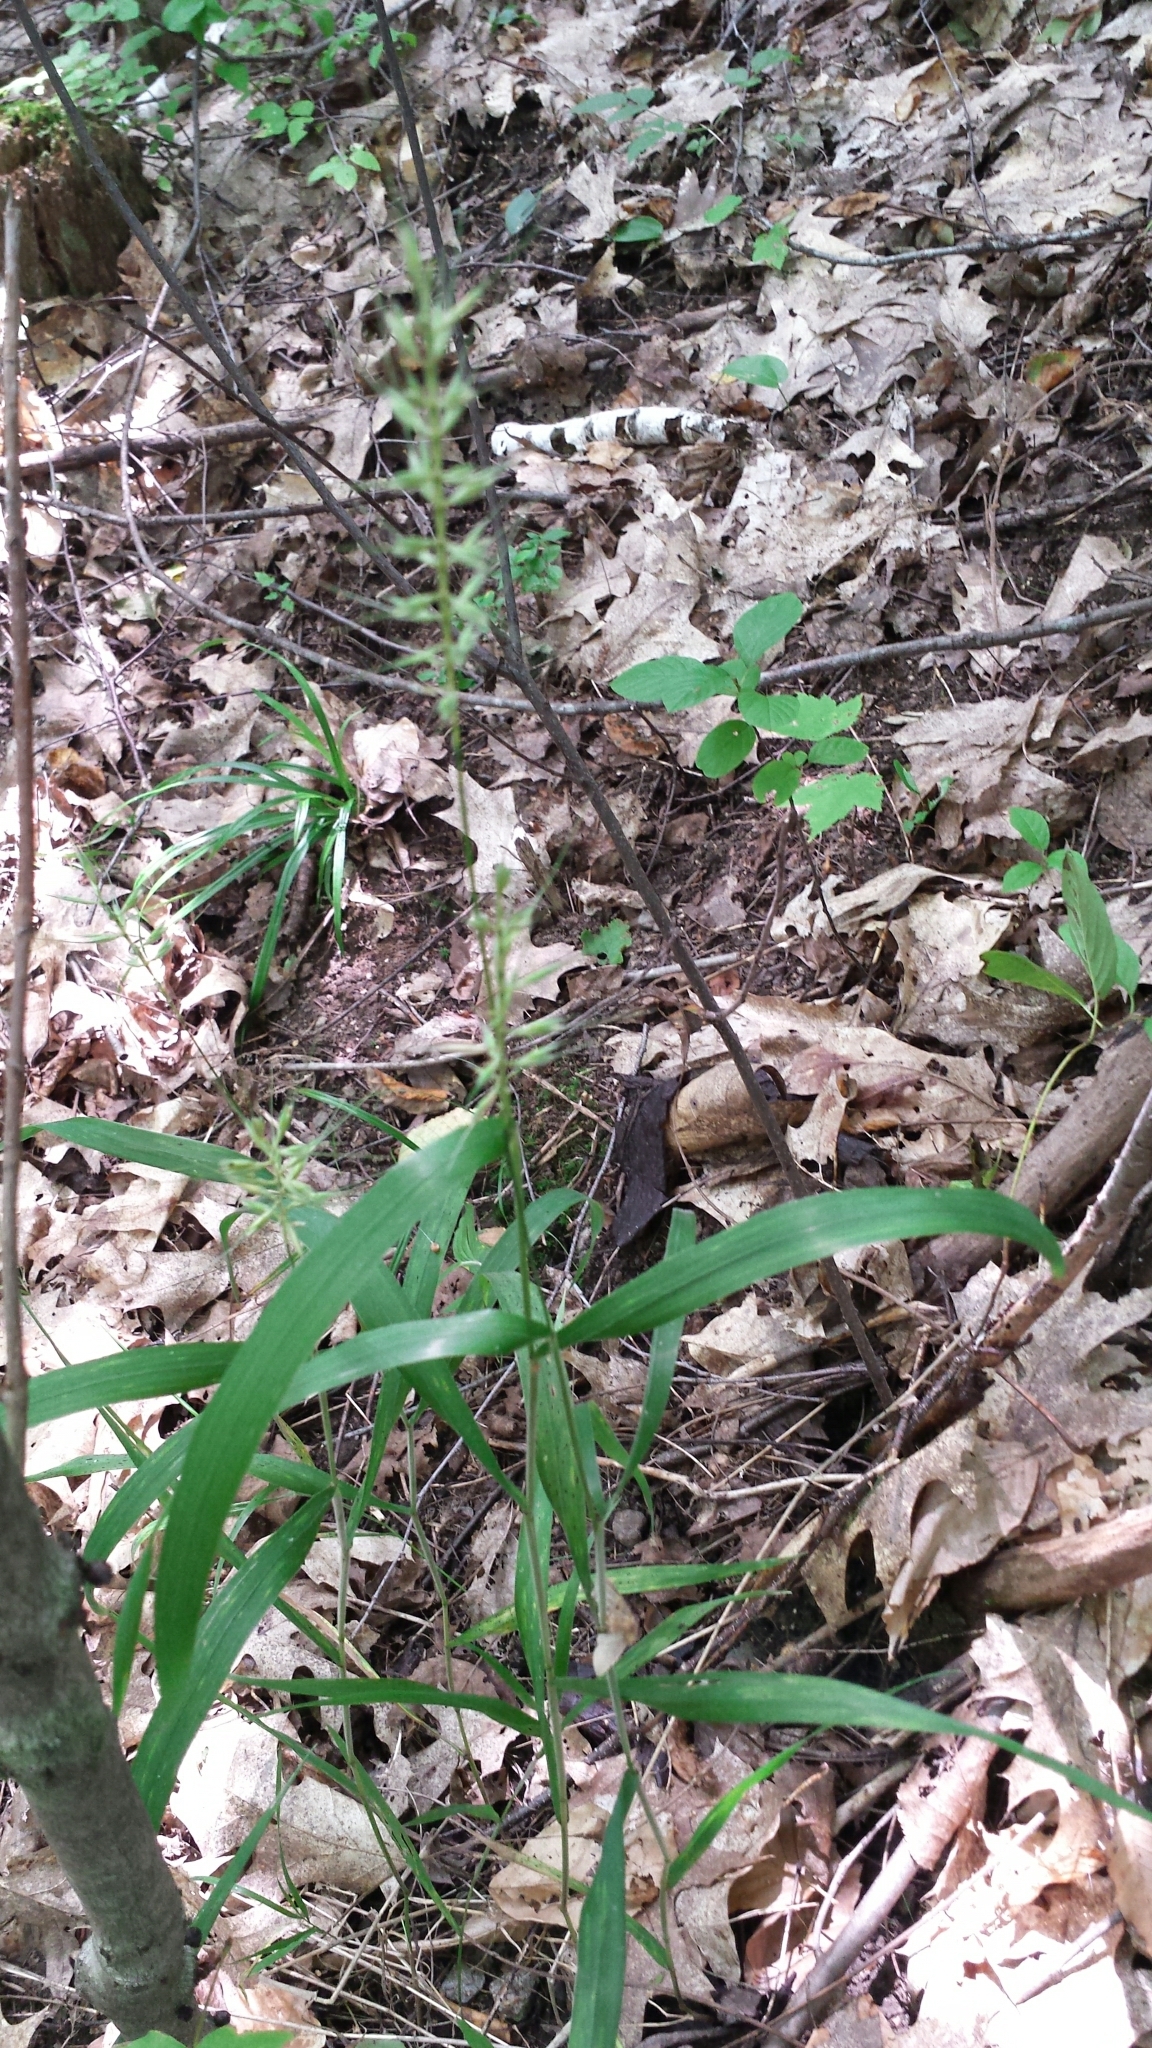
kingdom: Plantae
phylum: Tracheophyta
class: Liliopsida
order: Poales
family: Poaceae
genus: Elymus
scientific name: Elymus hystrix
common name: Bottlebrush grass
